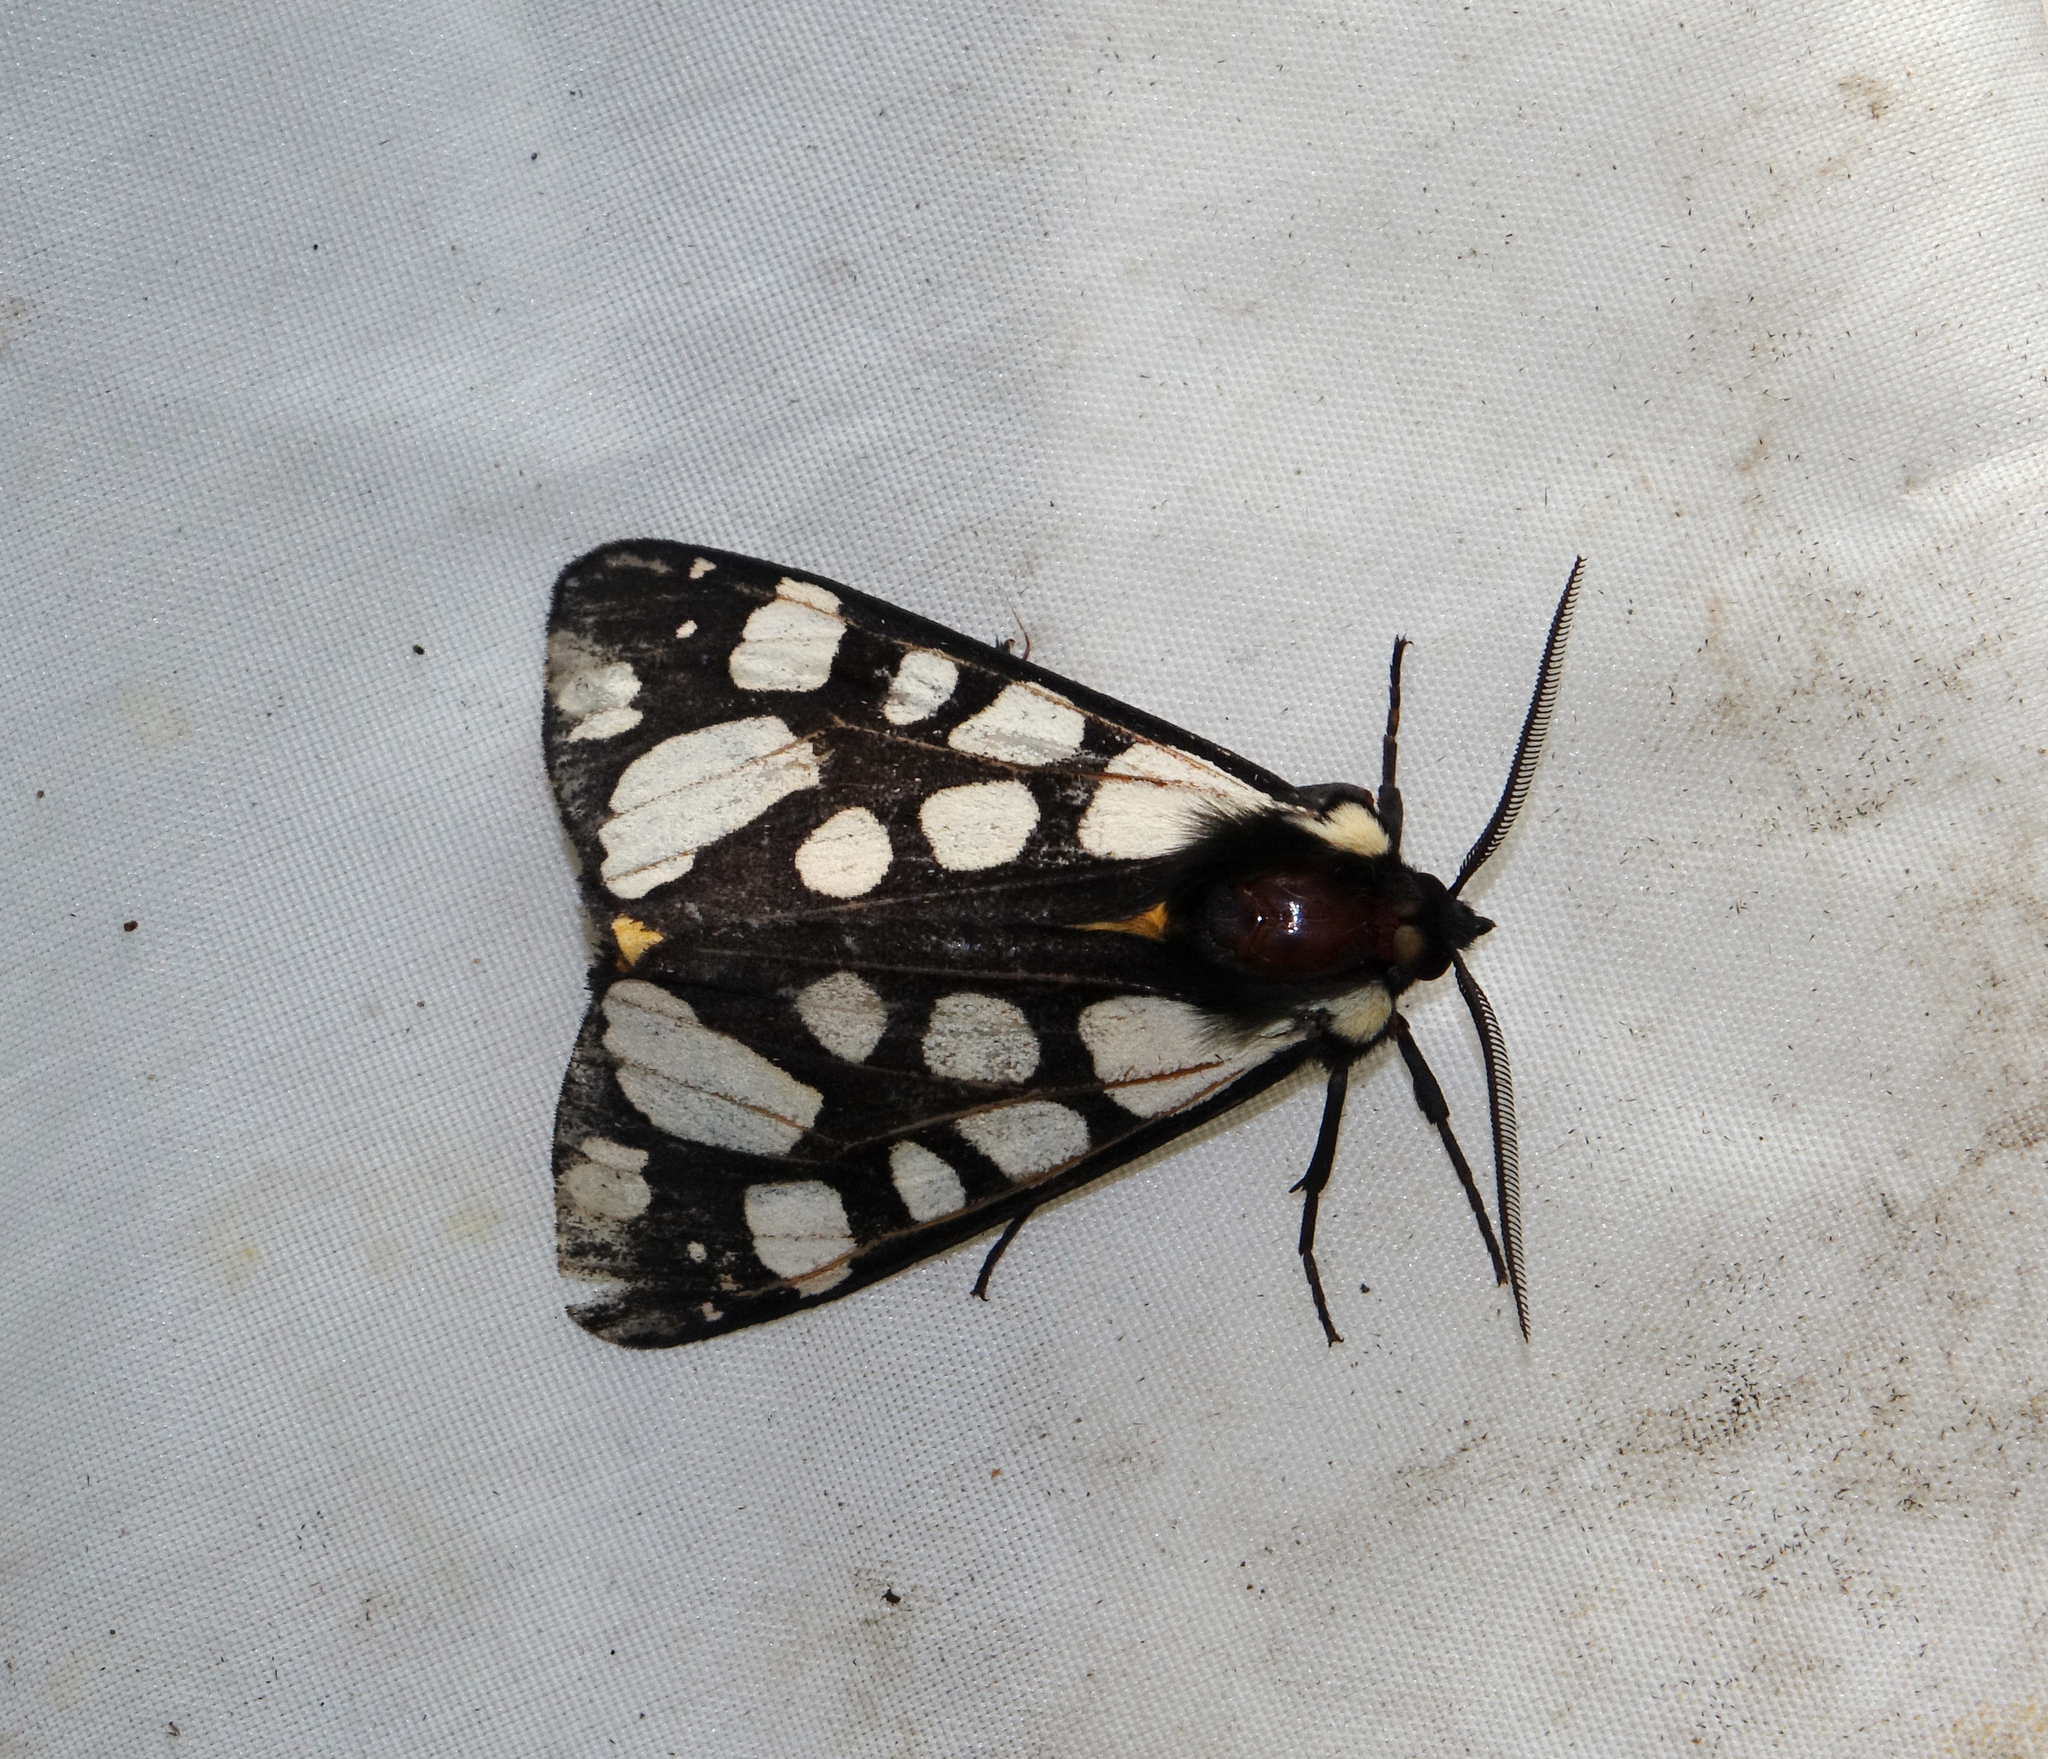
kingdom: Animalia
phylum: Arthropoda
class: Insecta
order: Lepidoptera
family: Erebidae
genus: Epicallia
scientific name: Epicallia villica
